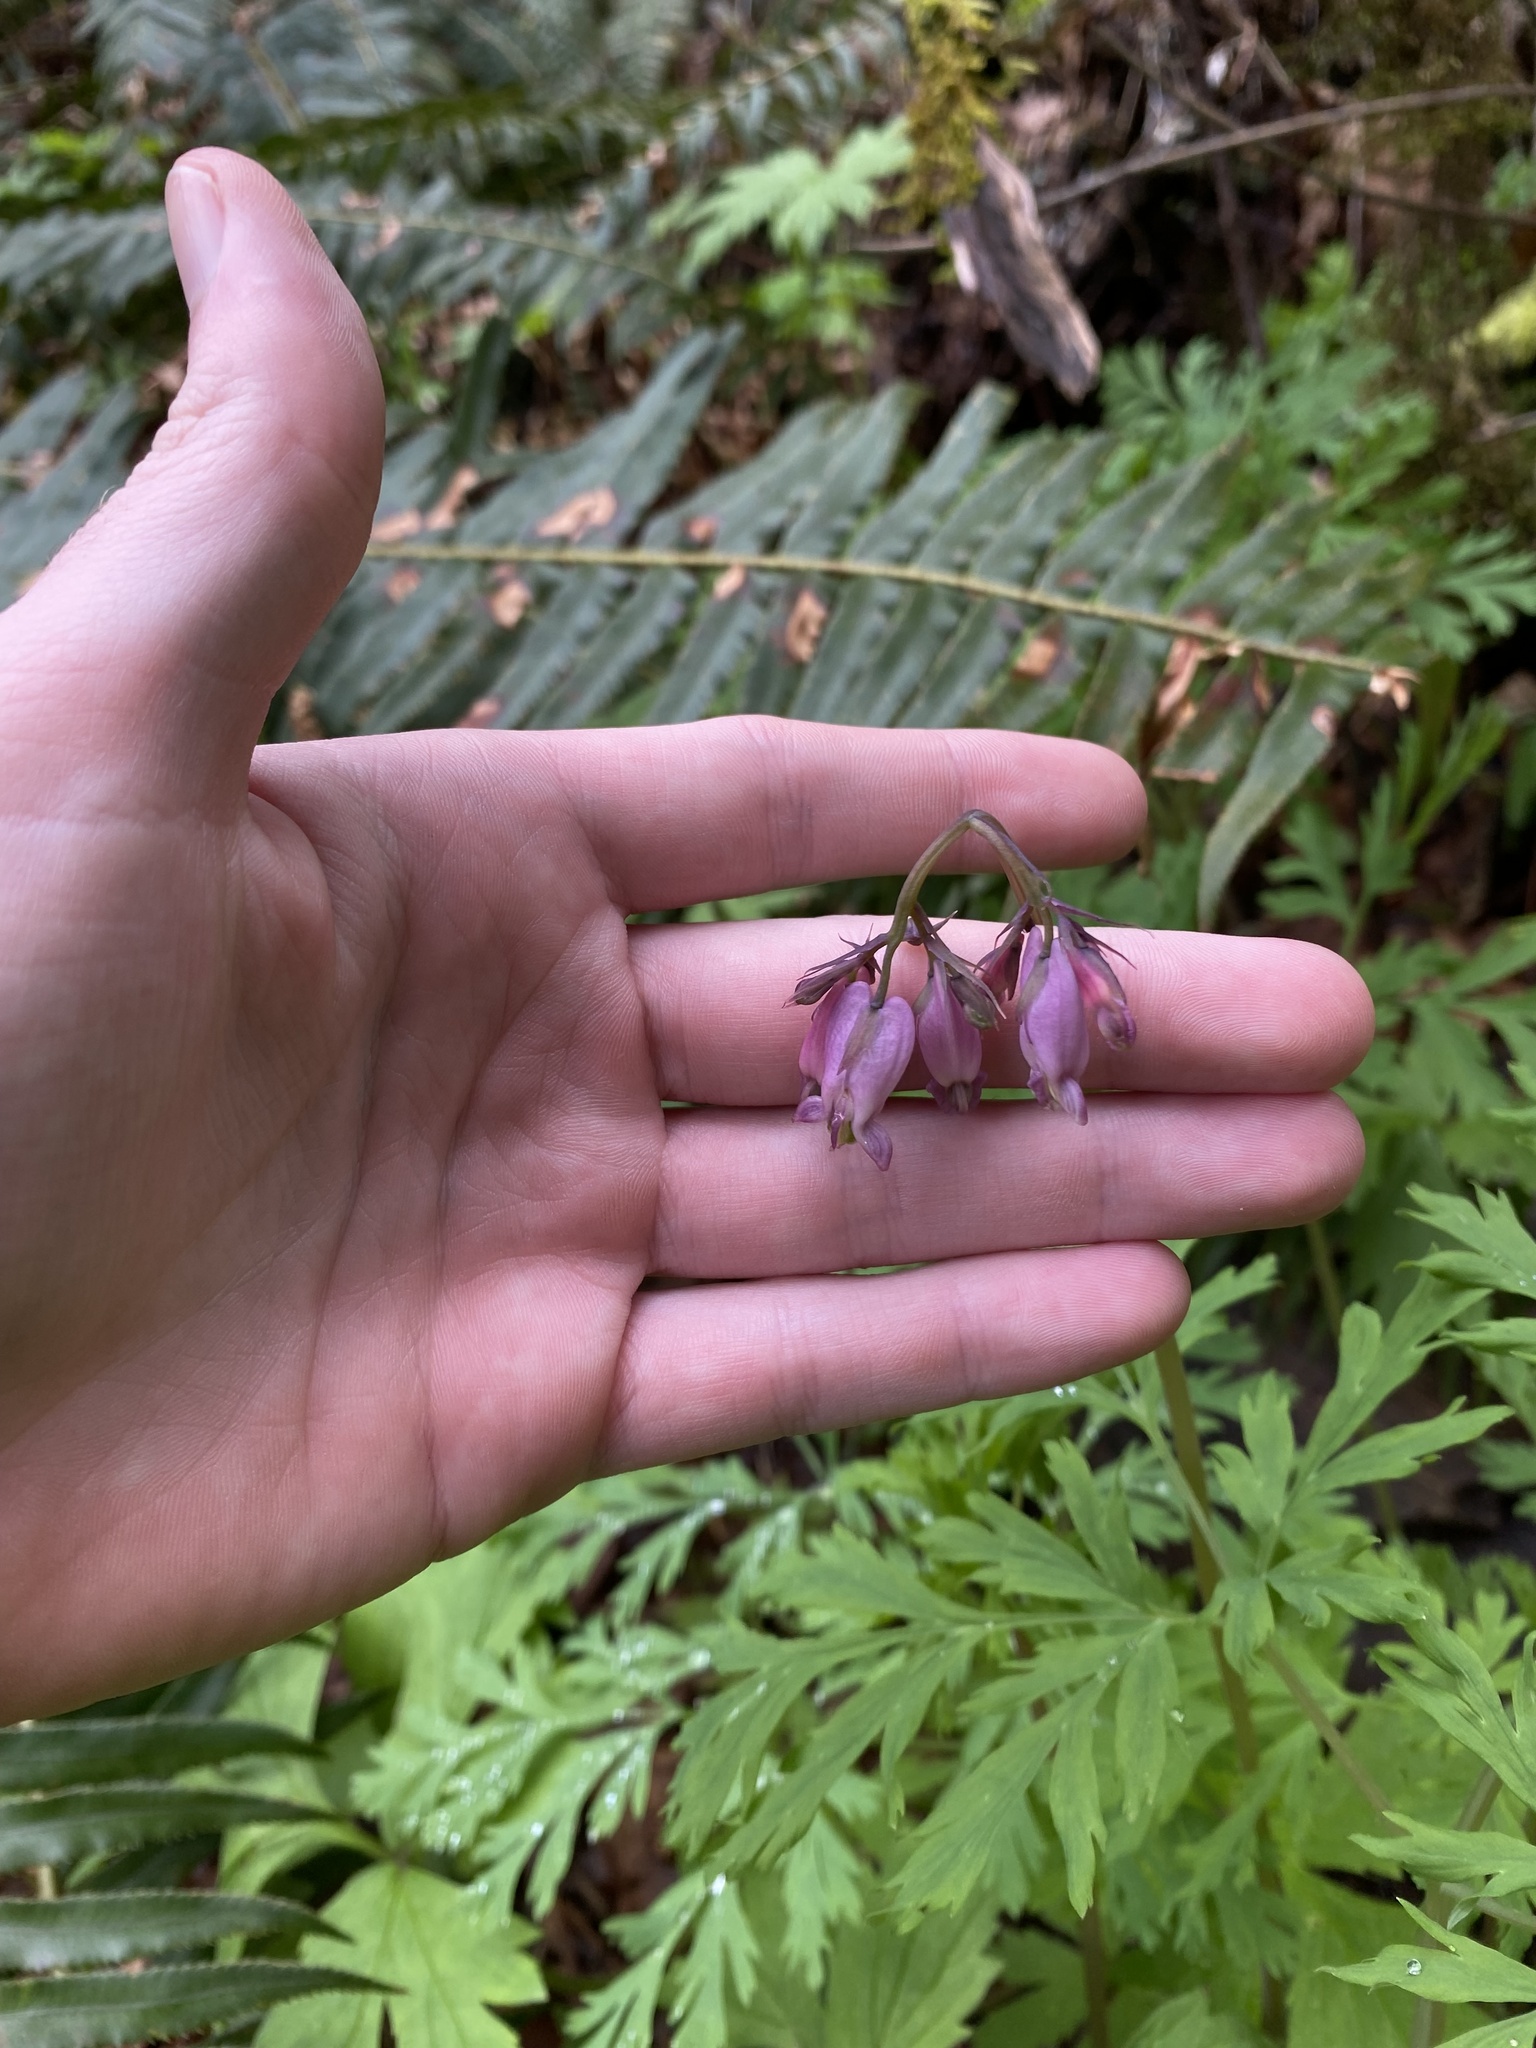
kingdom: Plantae
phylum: Tracheophyta
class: Magnoliopsida
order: Ranunculales
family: Papaveraceae
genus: Dicentra
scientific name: Dicentra formosa
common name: Bleeding-heart
